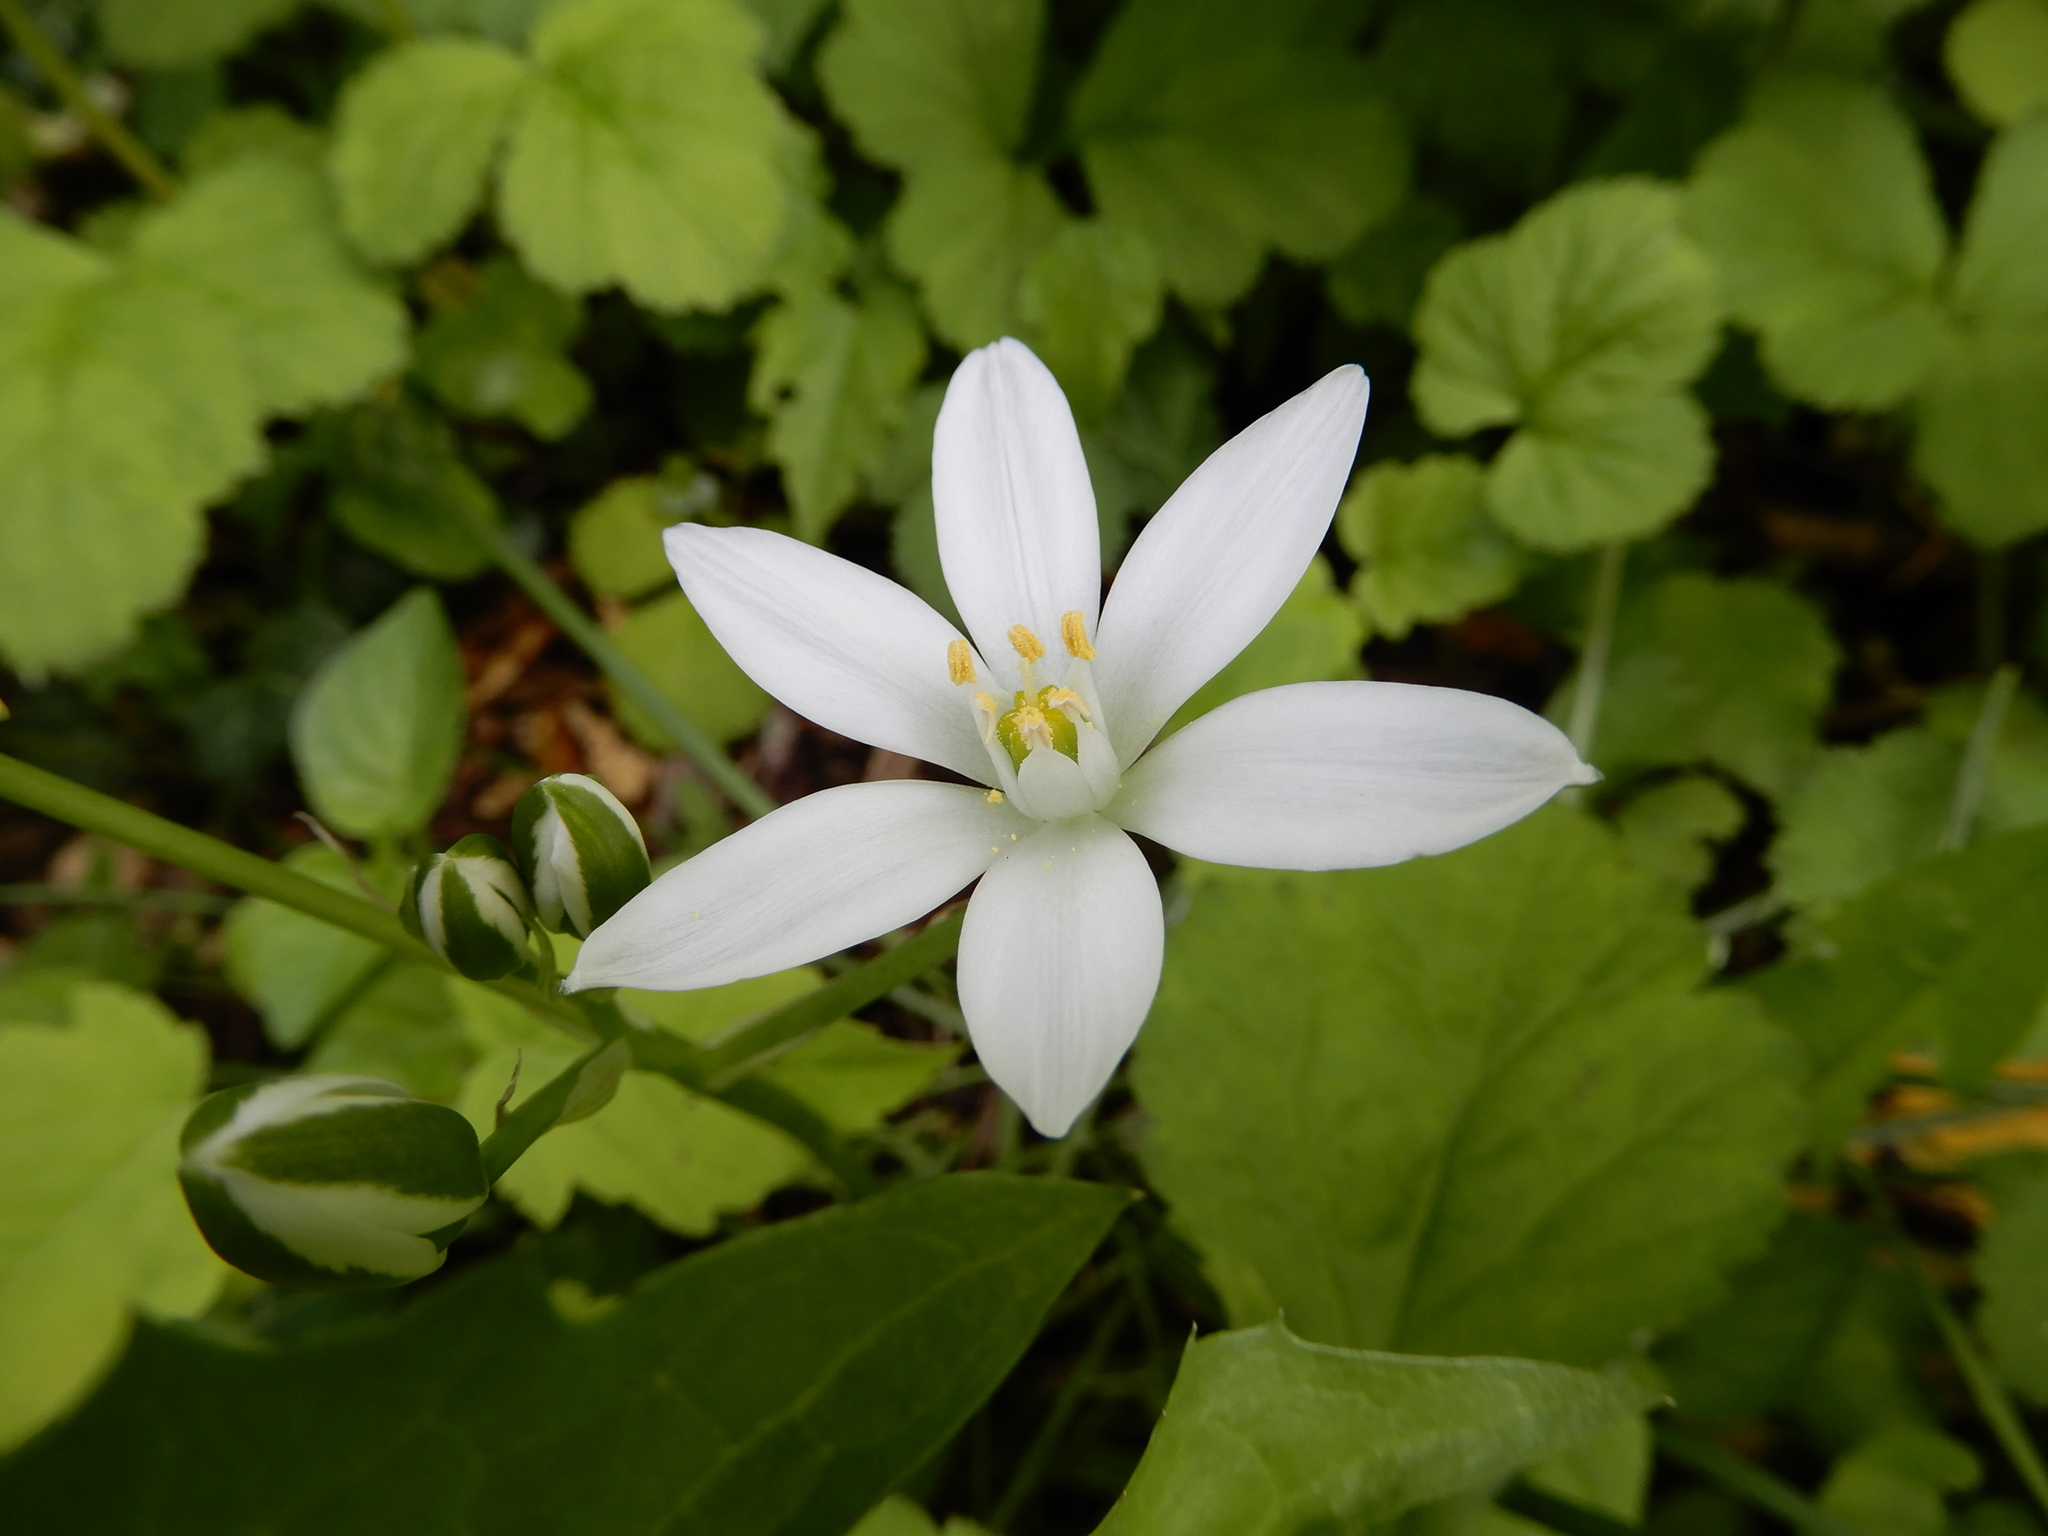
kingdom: Plantae
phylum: Tracheophyta
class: Liliopsida
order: Asparagales
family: Asparagaceae
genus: Ornithogalum
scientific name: Ornithogalum umbellatum
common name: Garden star-of-bethlehem
